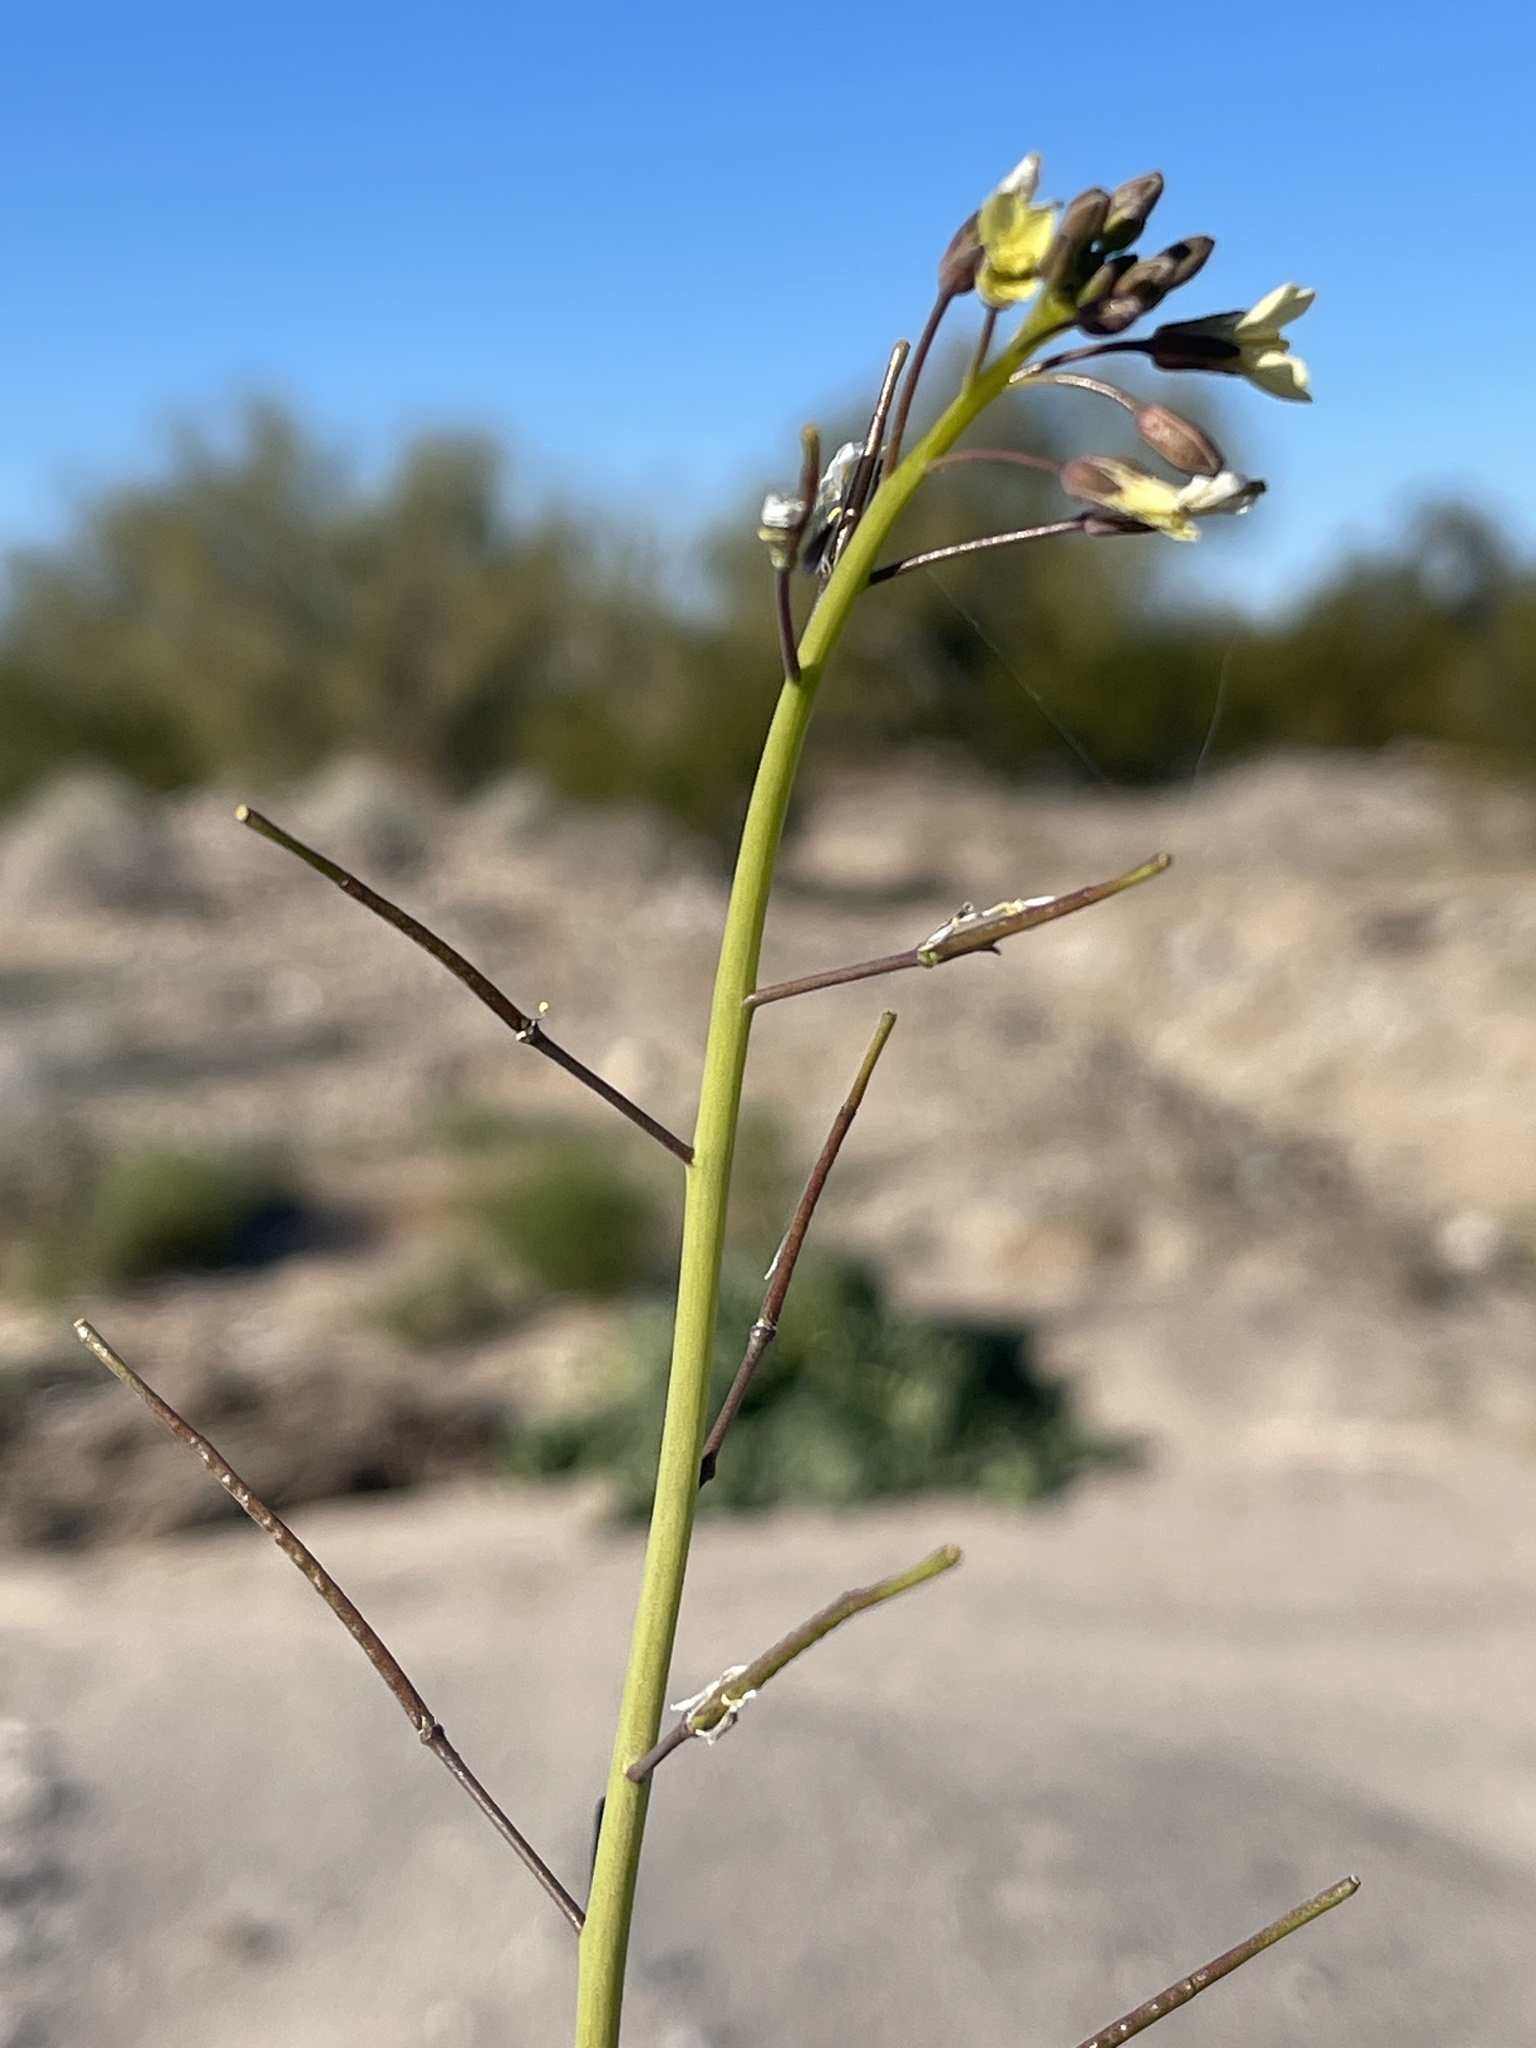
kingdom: Plantae
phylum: Tracheophyta
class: Magnoliopsida
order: Brassicales
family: Brassicaceae
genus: Brassica
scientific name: Brassica tournefortii
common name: Pale cabbage
